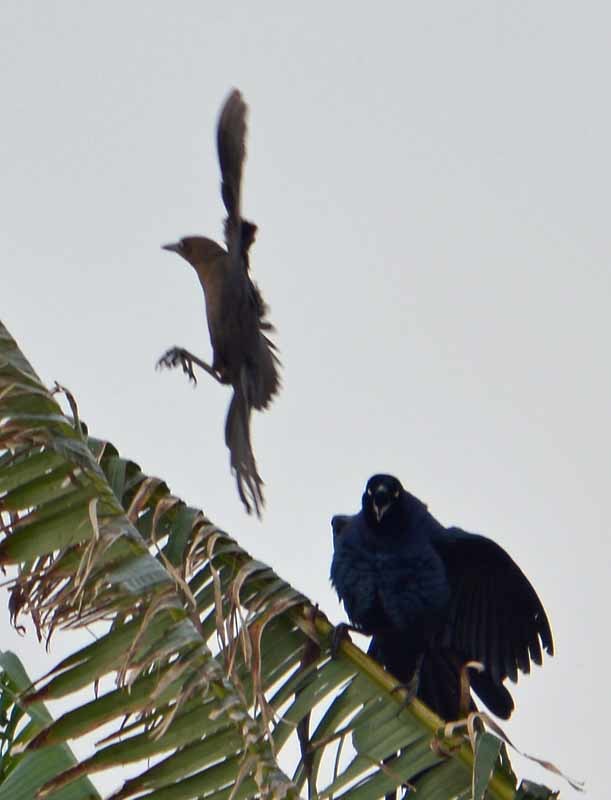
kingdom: Animalia
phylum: Chordata
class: Aves
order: Passeriformes
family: Icteridae
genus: Quiscalus
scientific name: Quiscalus mexicanus
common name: Great-tailed grackle
